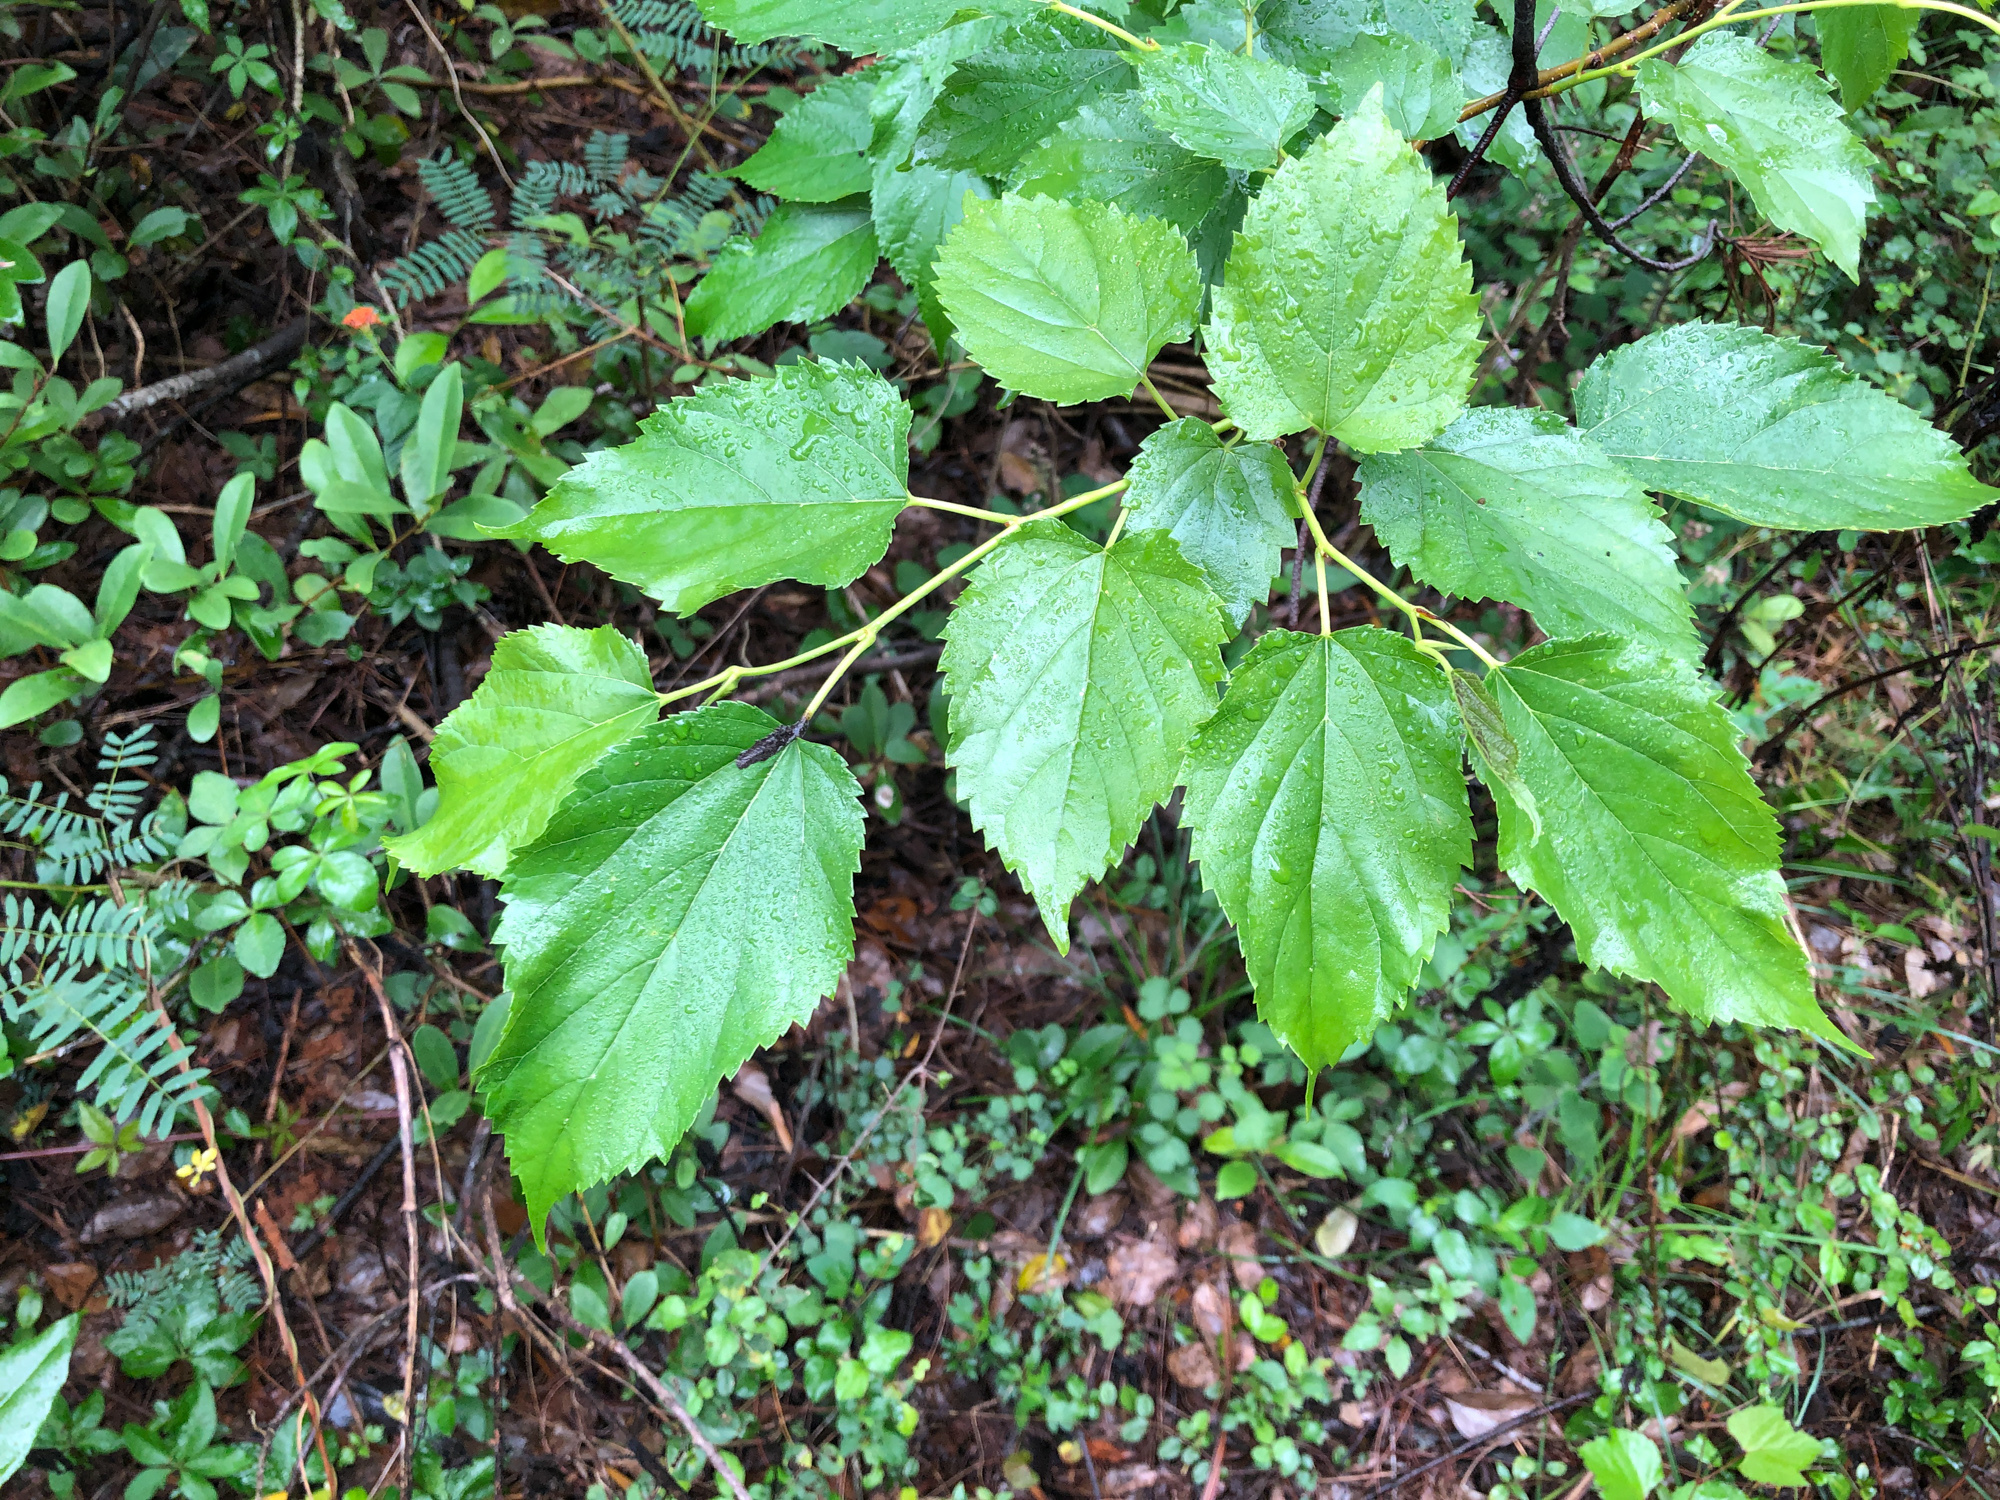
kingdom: Plantae
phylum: Tracheophyta
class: Magnoliopsida
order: Rosales
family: Moraceae
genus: Morus
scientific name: Morus indica
